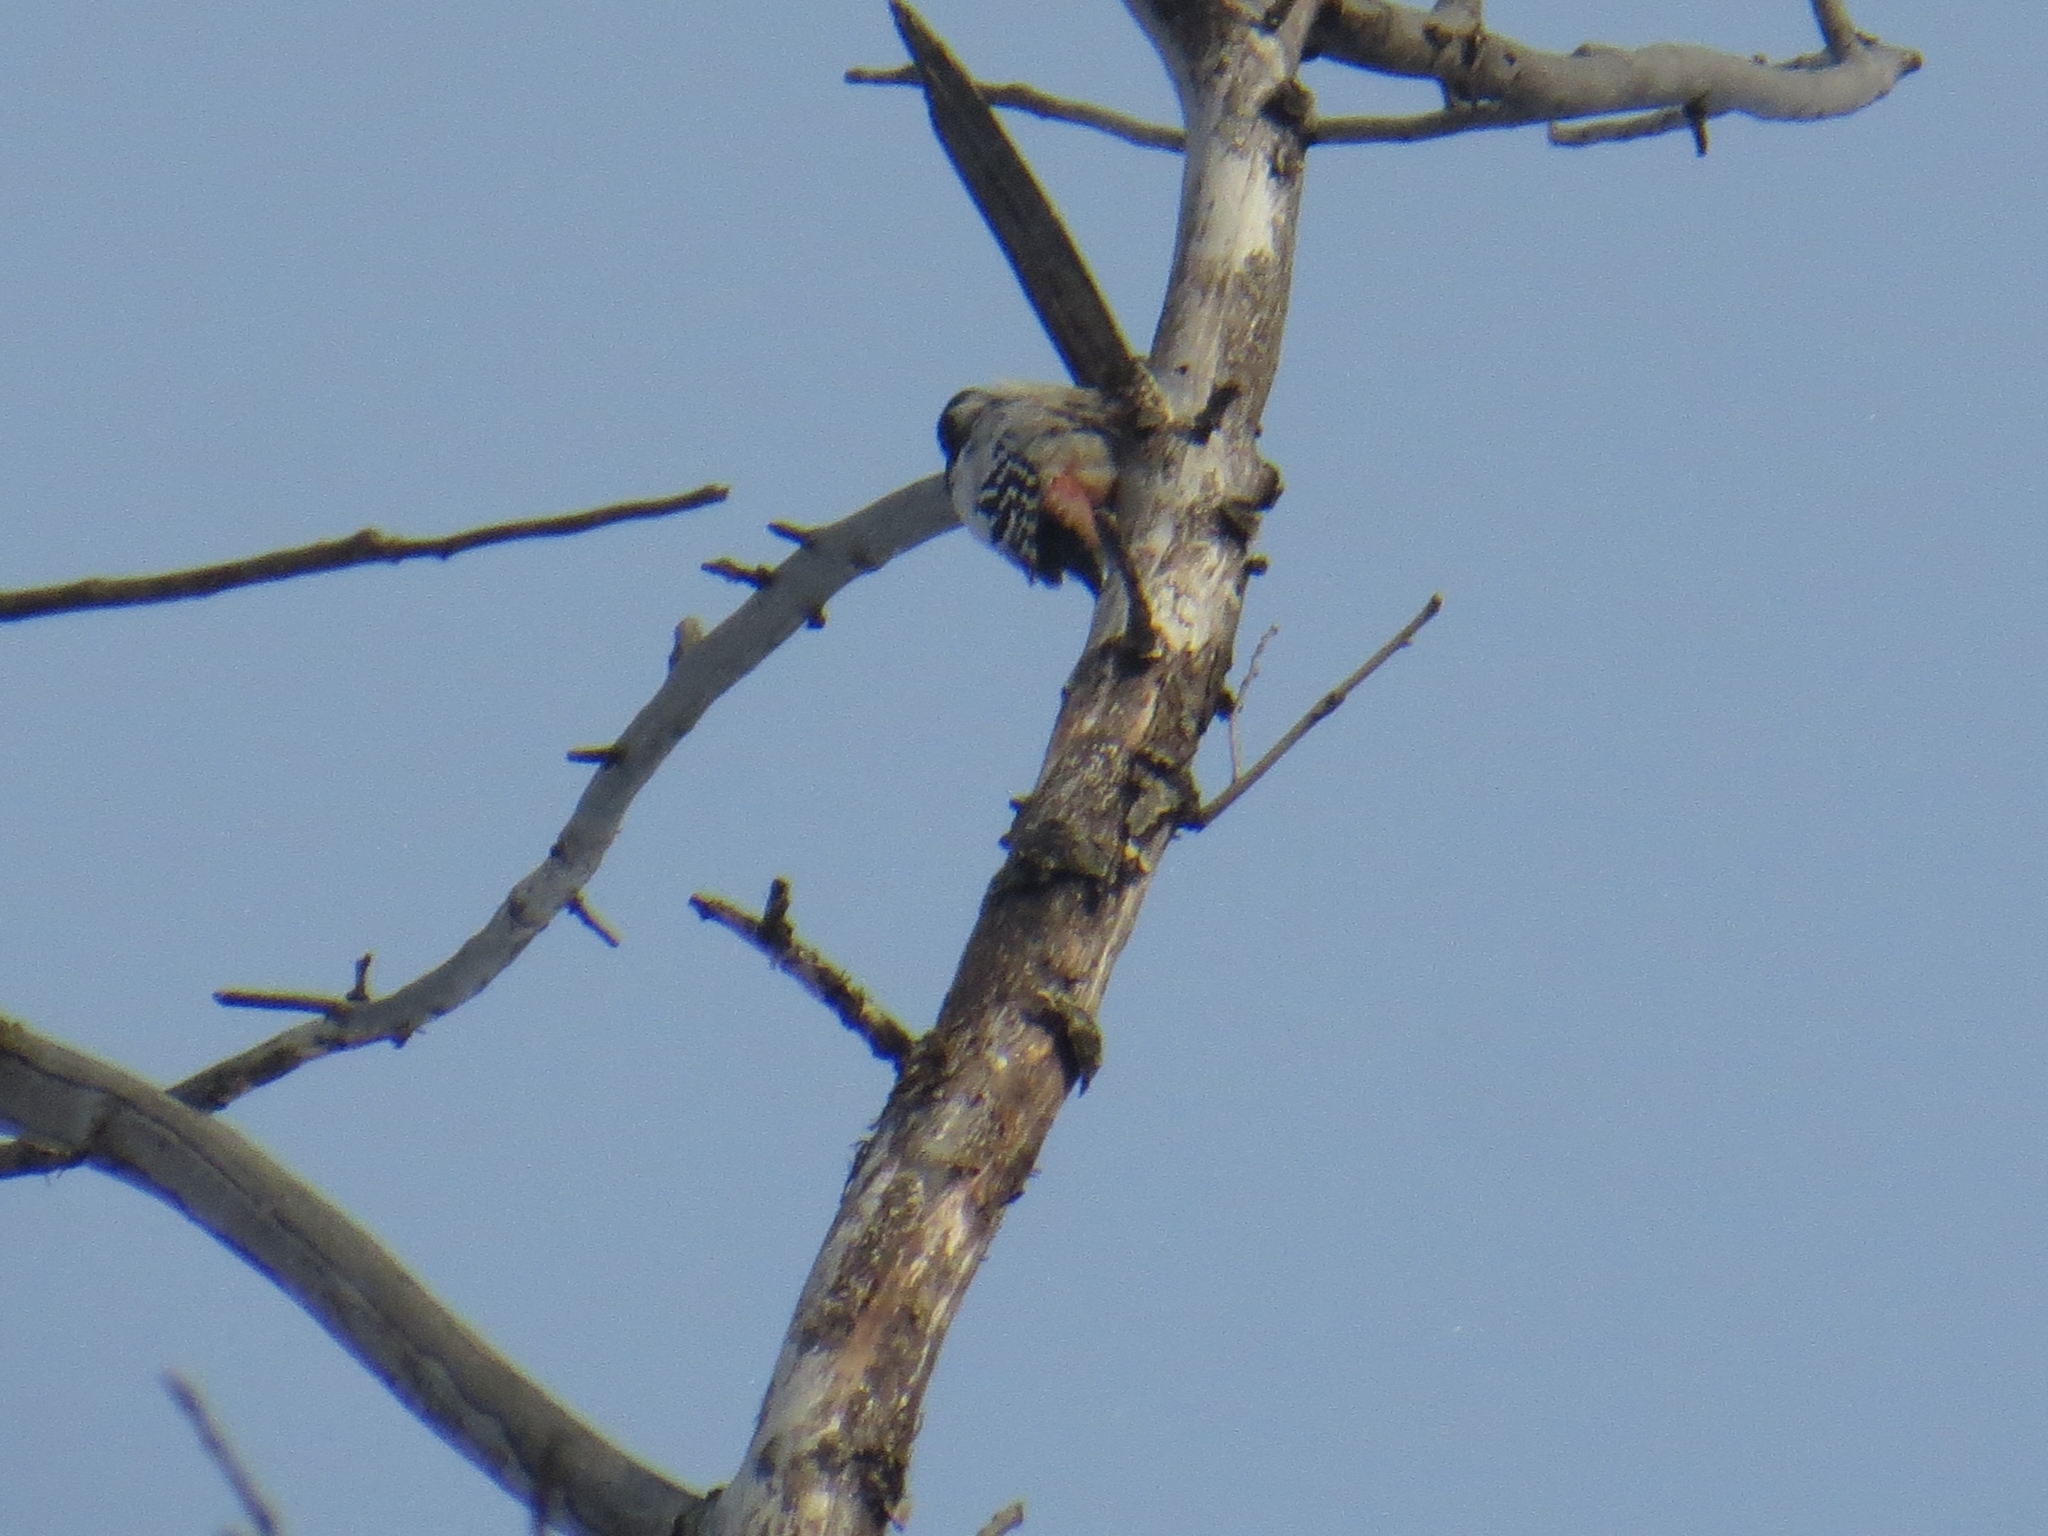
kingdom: Animalia
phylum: Chordata
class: Aves
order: Piciformes
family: Picidae
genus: Dendrocopos
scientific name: Dendrocopos leucotos
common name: White-backed woodpecker
